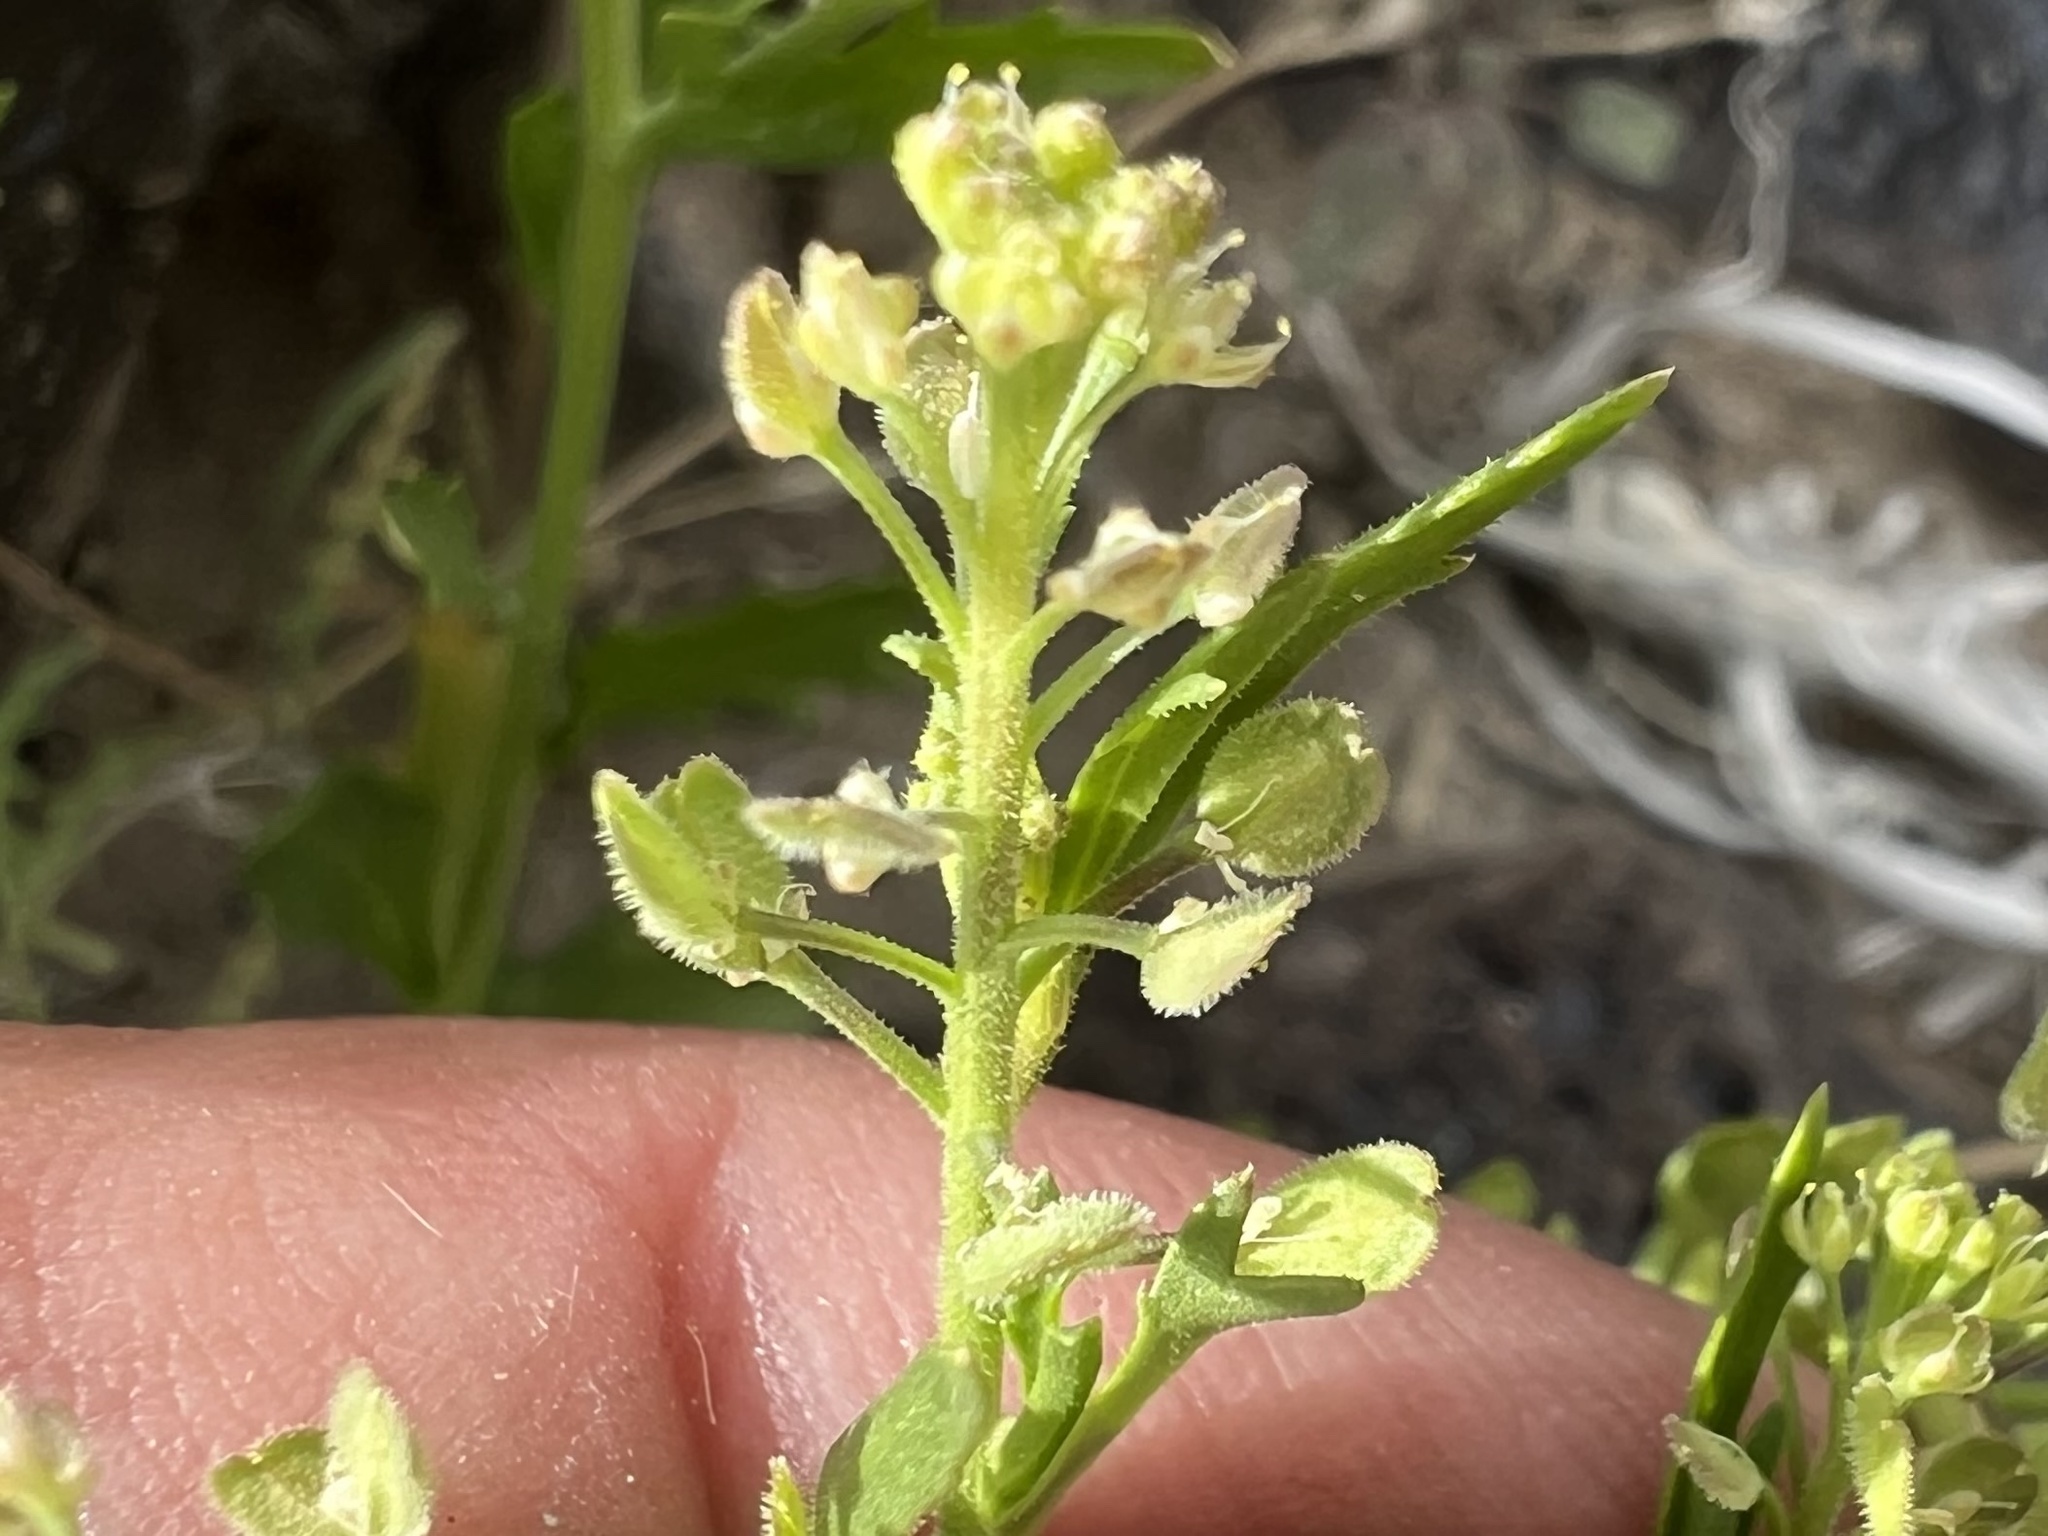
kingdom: Plantae
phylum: Tracheophyta
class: Magnoliopsida
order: Brassicales
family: Brassicaceae
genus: Lepidium
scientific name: Lepidium lasiocarpum
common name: Hairy-pod pepperwort
